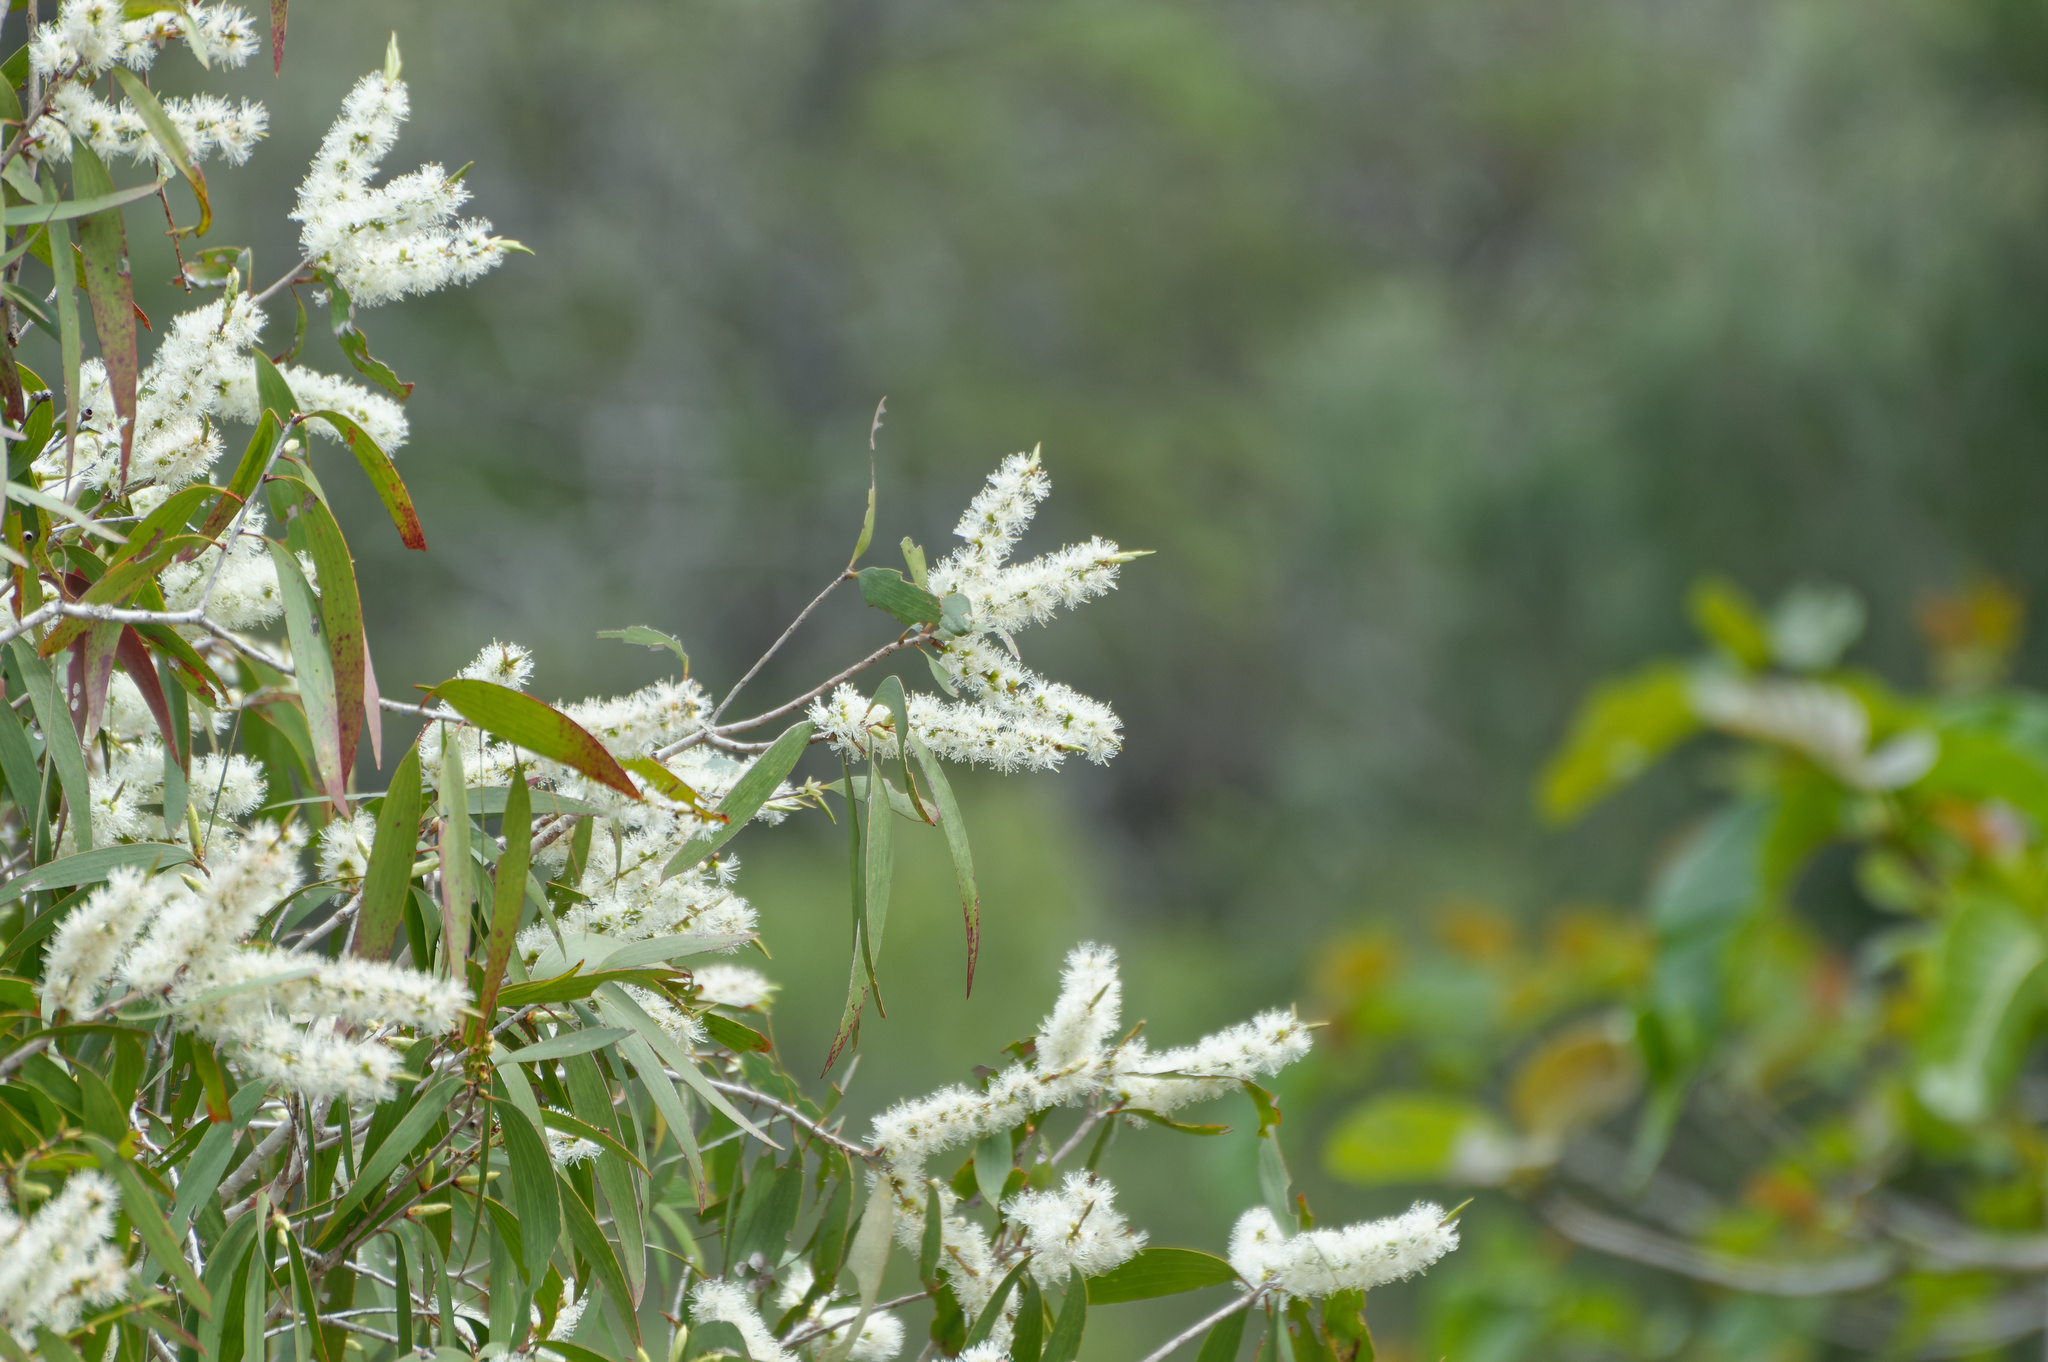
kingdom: Plantae
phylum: Tracheophyta
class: Magnoliopsida
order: Myrtales
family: Myrtaceae
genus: Melaleuca
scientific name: Melaleuca leucadendra
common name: Weeping paperbark
